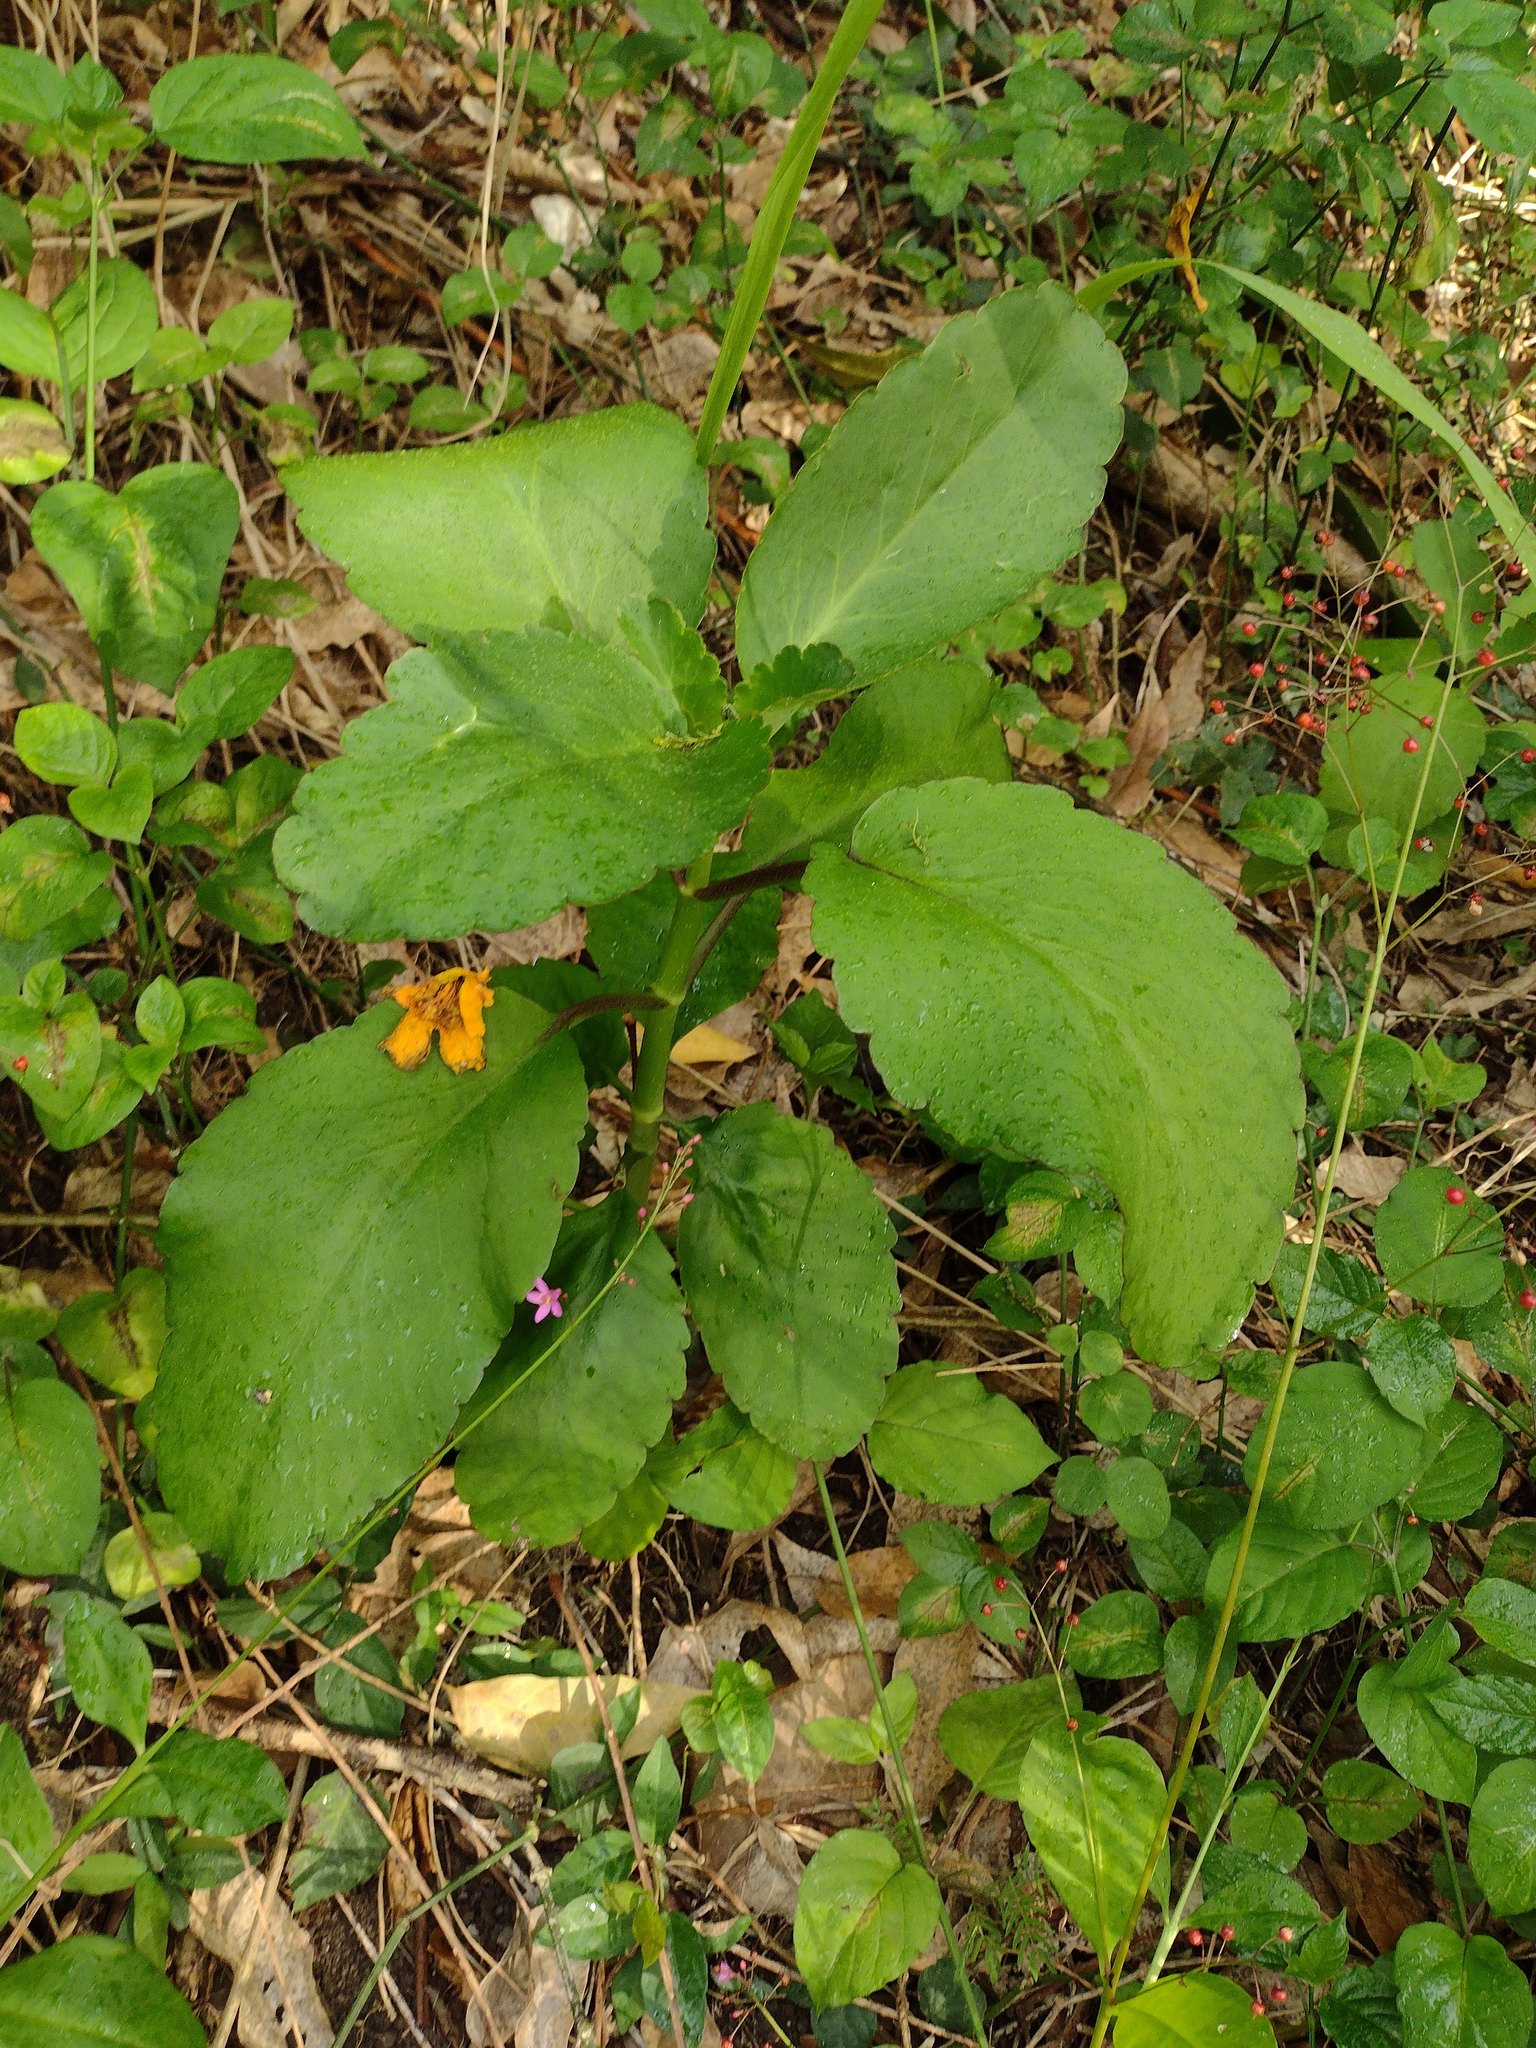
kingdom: Plantae
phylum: Tracheophyta
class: Magnoliopsida
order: Saxifragales
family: Crassulaceae
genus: Kalanchoe
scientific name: Kalanchoe pinnata
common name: Cathedral bells
